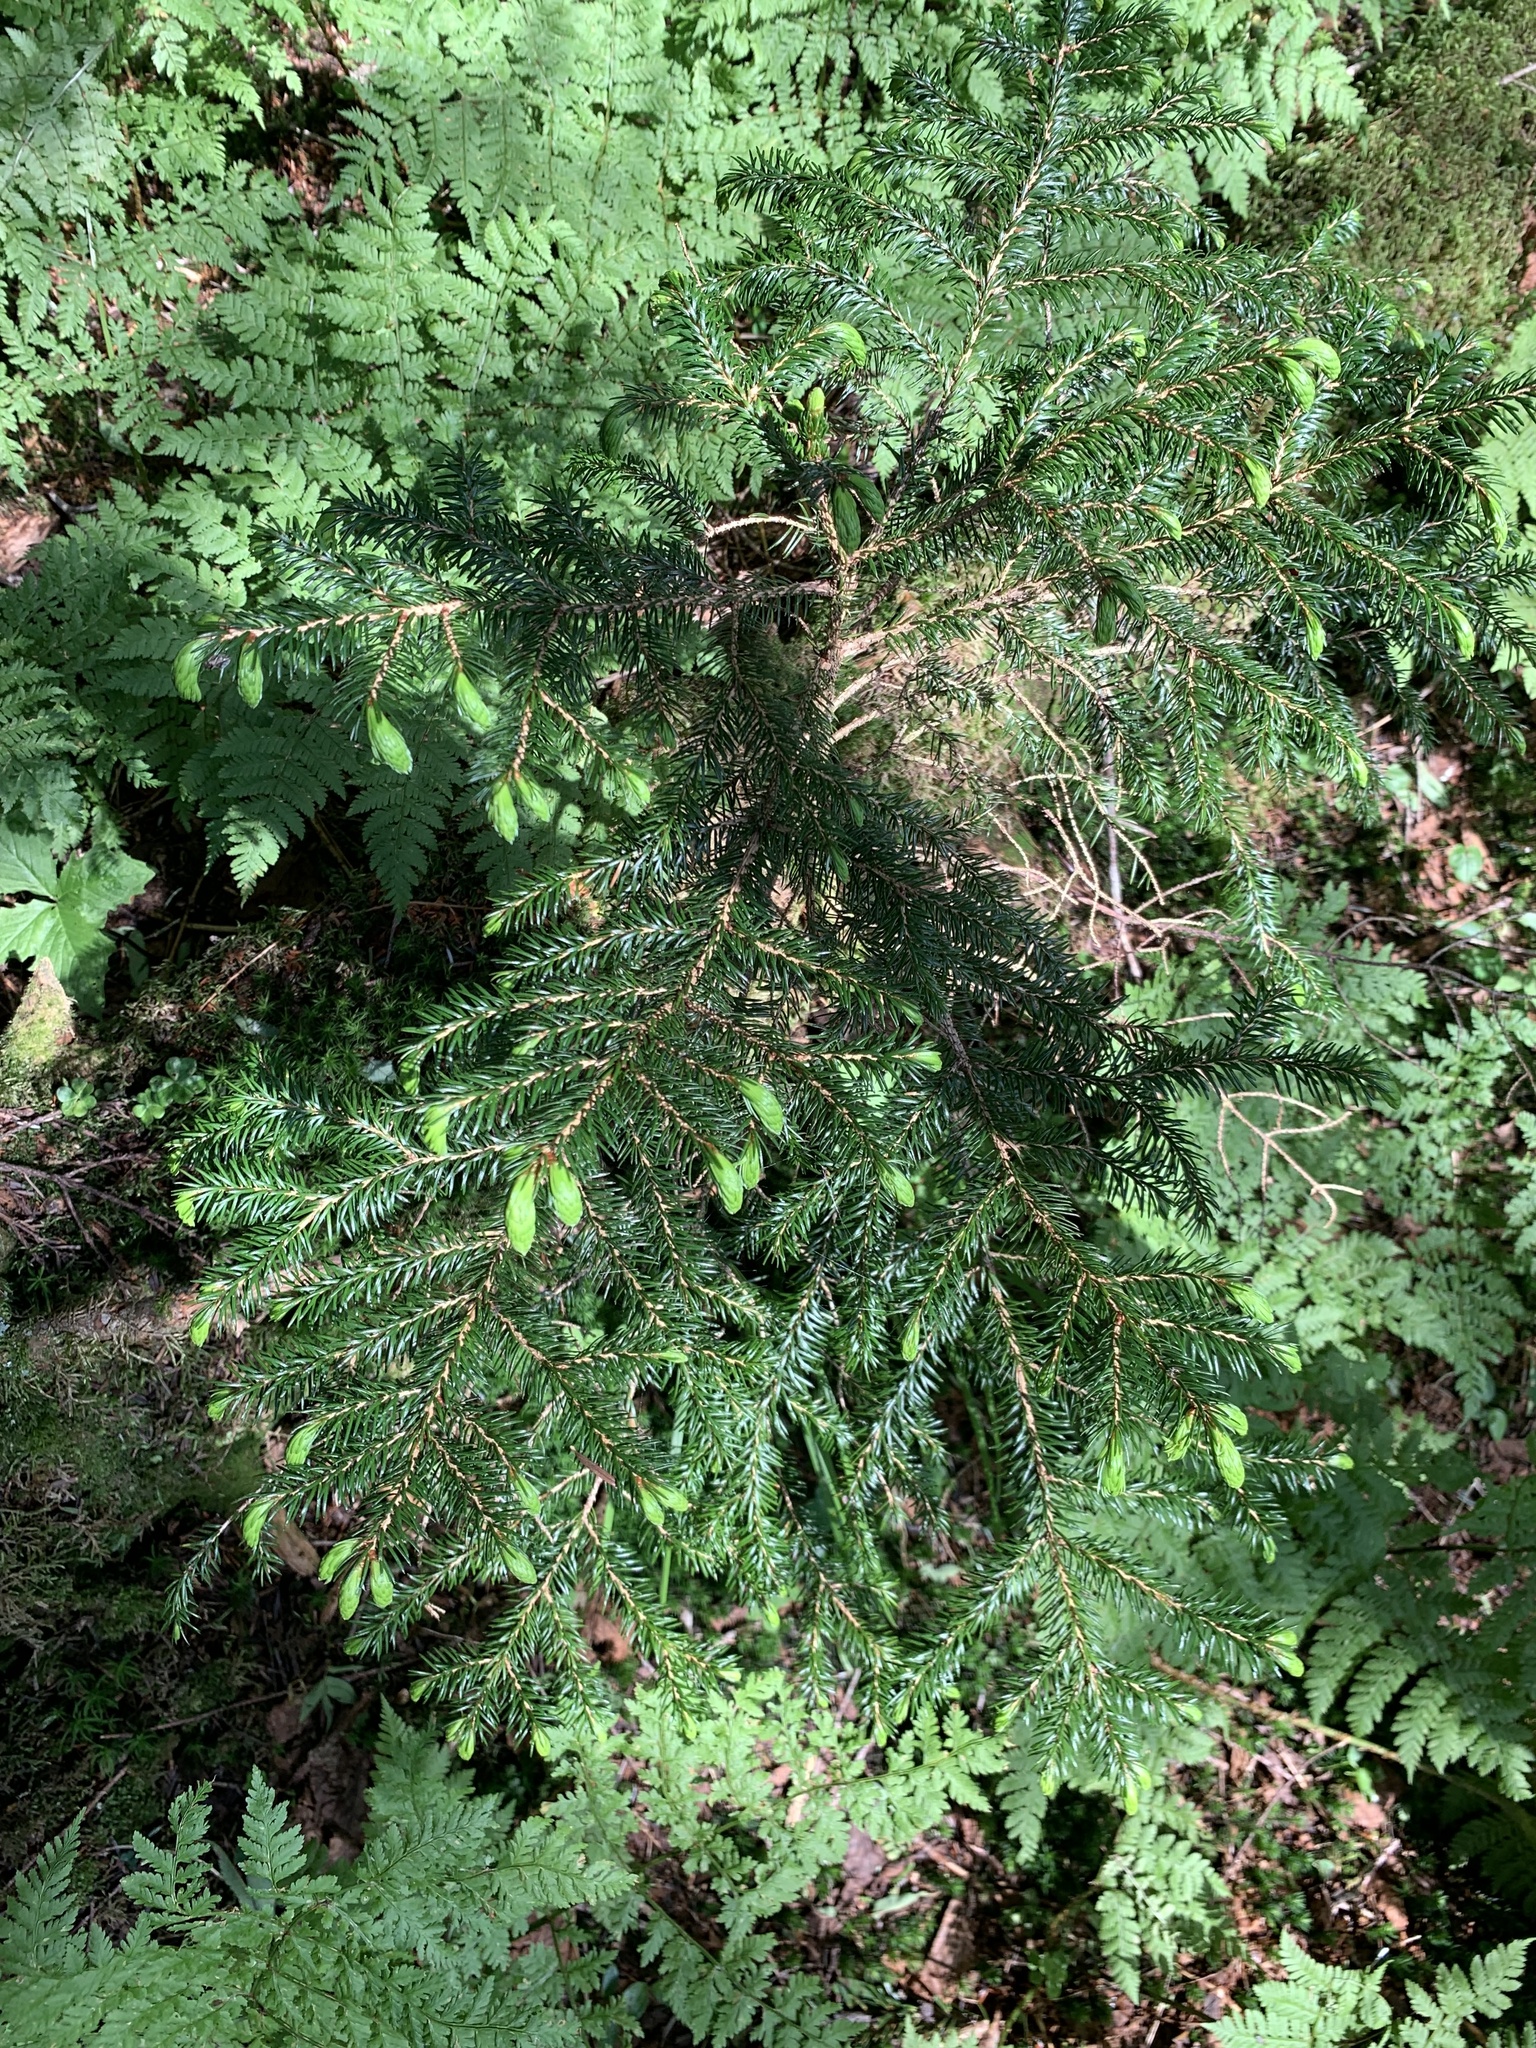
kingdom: Plantae
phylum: Tracheophyta
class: Pinopsida
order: Pinales
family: Pinaceae
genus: Picea
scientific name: Picea torano
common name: Tigertail spruce
